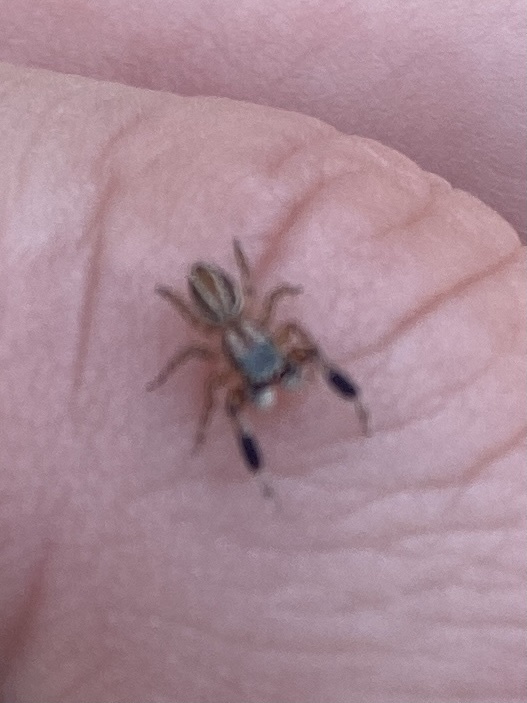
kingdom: Animalia
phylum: Arthropoda
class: Arachnida
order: Araneae
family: Salticidae
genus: Marpissa
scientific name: Marpissa lineata
